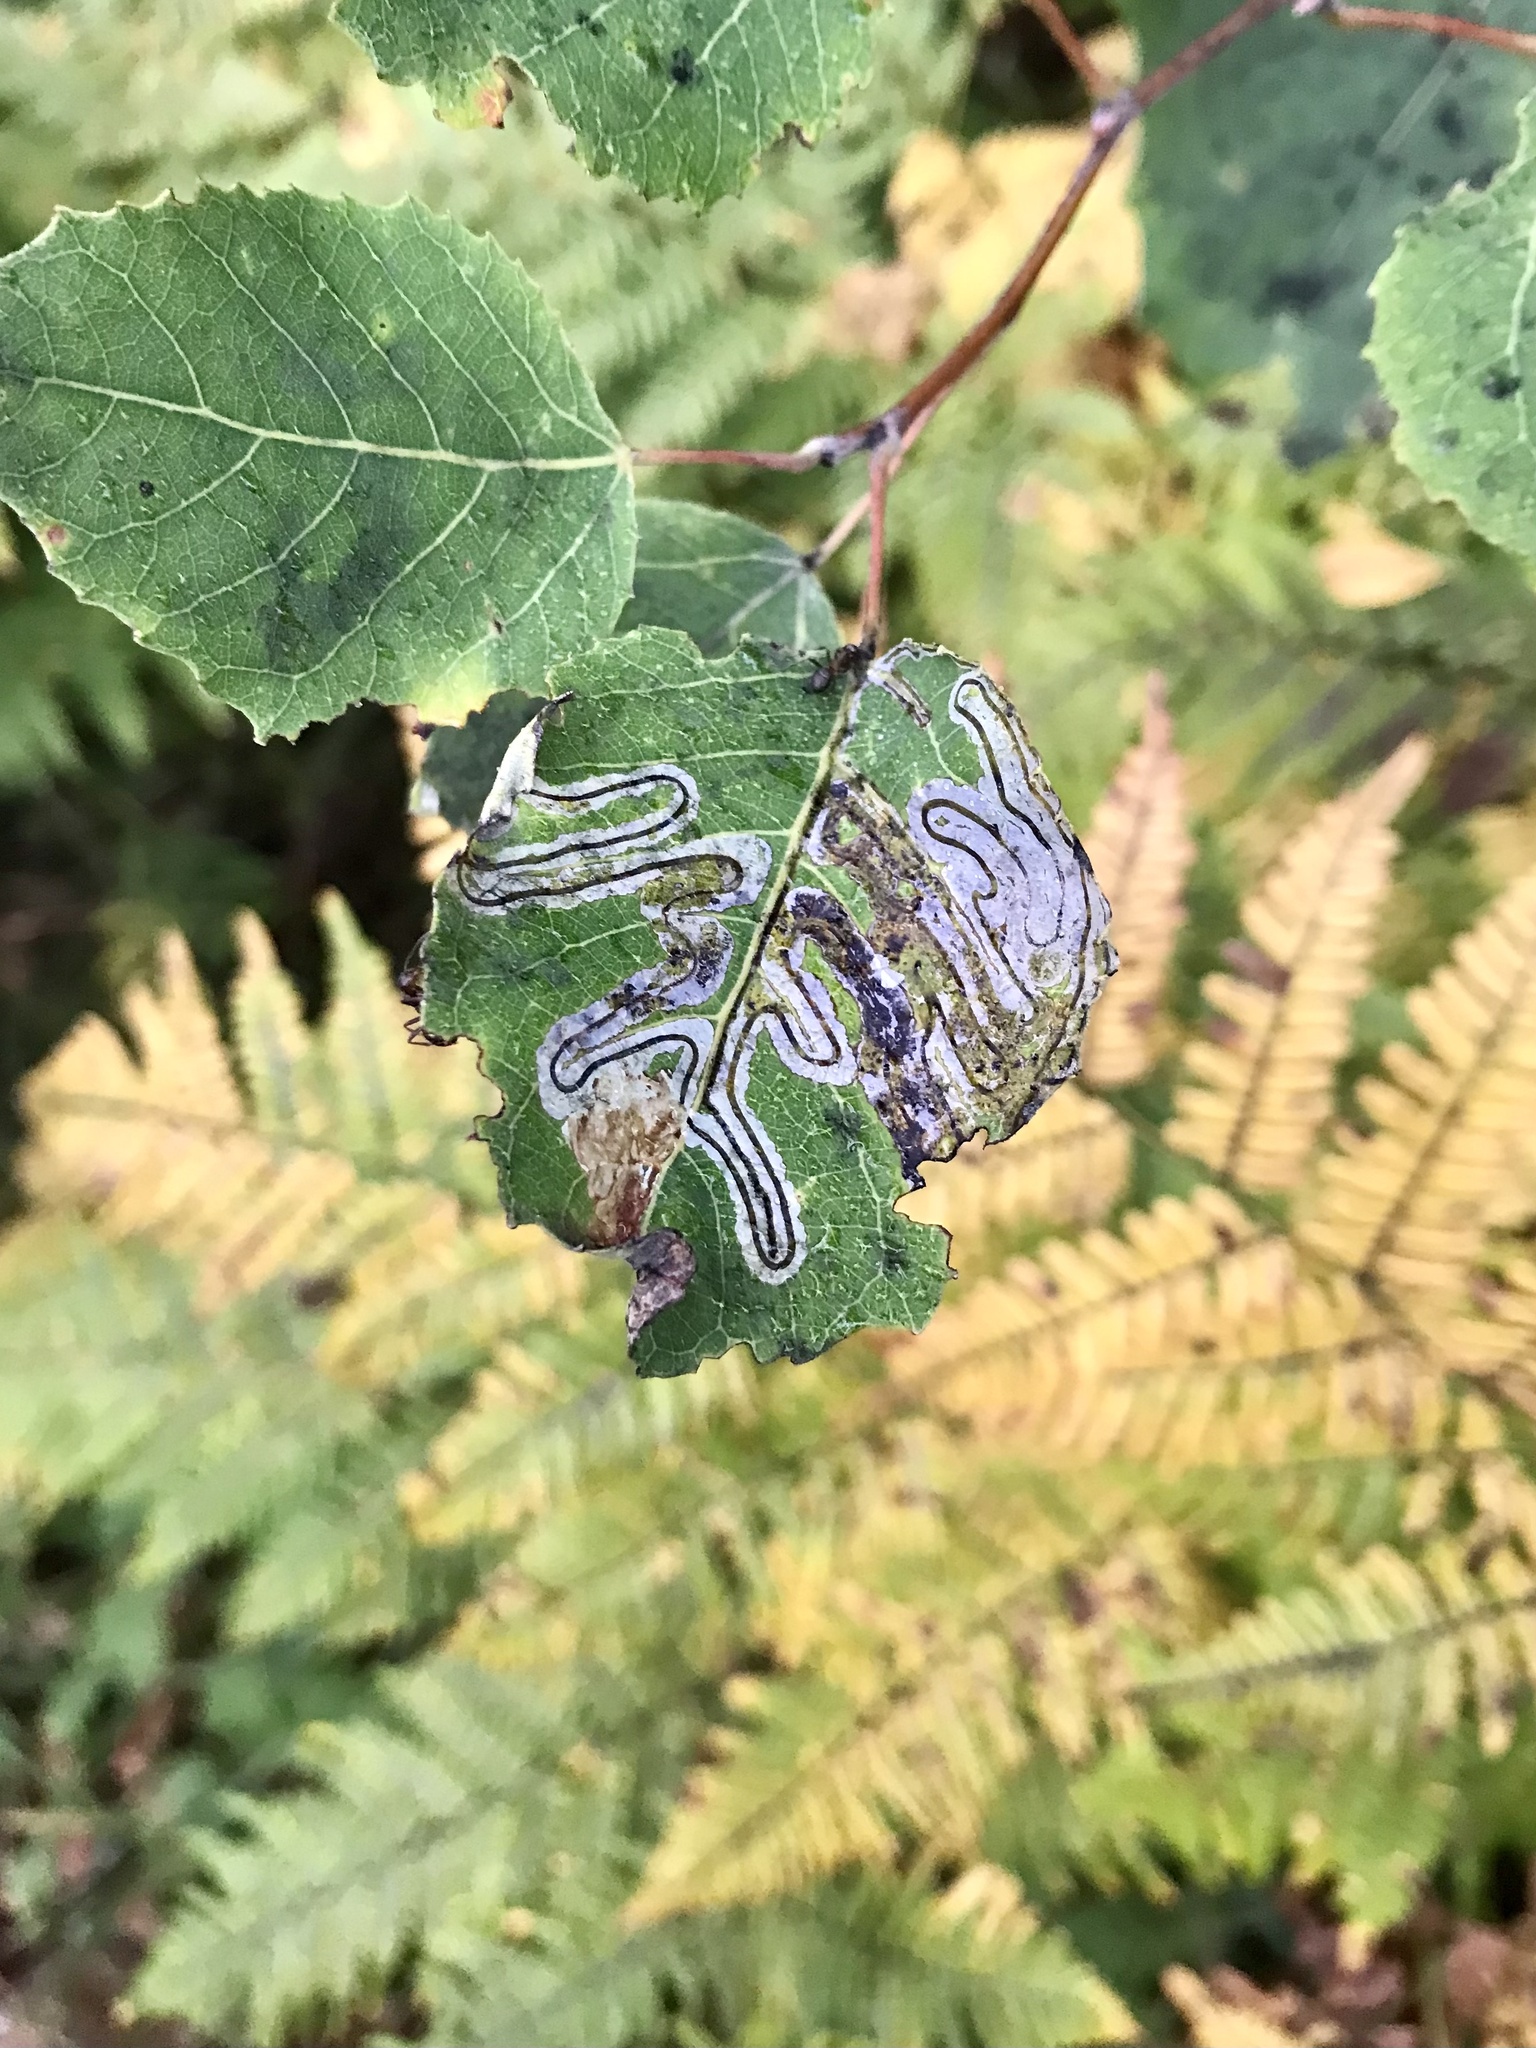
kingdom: Animalia
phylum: Arthropoda
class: Insecta
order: Lepidoptera
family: Gracillariidae
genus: Phyllocnistis
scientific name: Phyllocnistis populiella
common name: Aspen serpentine leafminer moth
